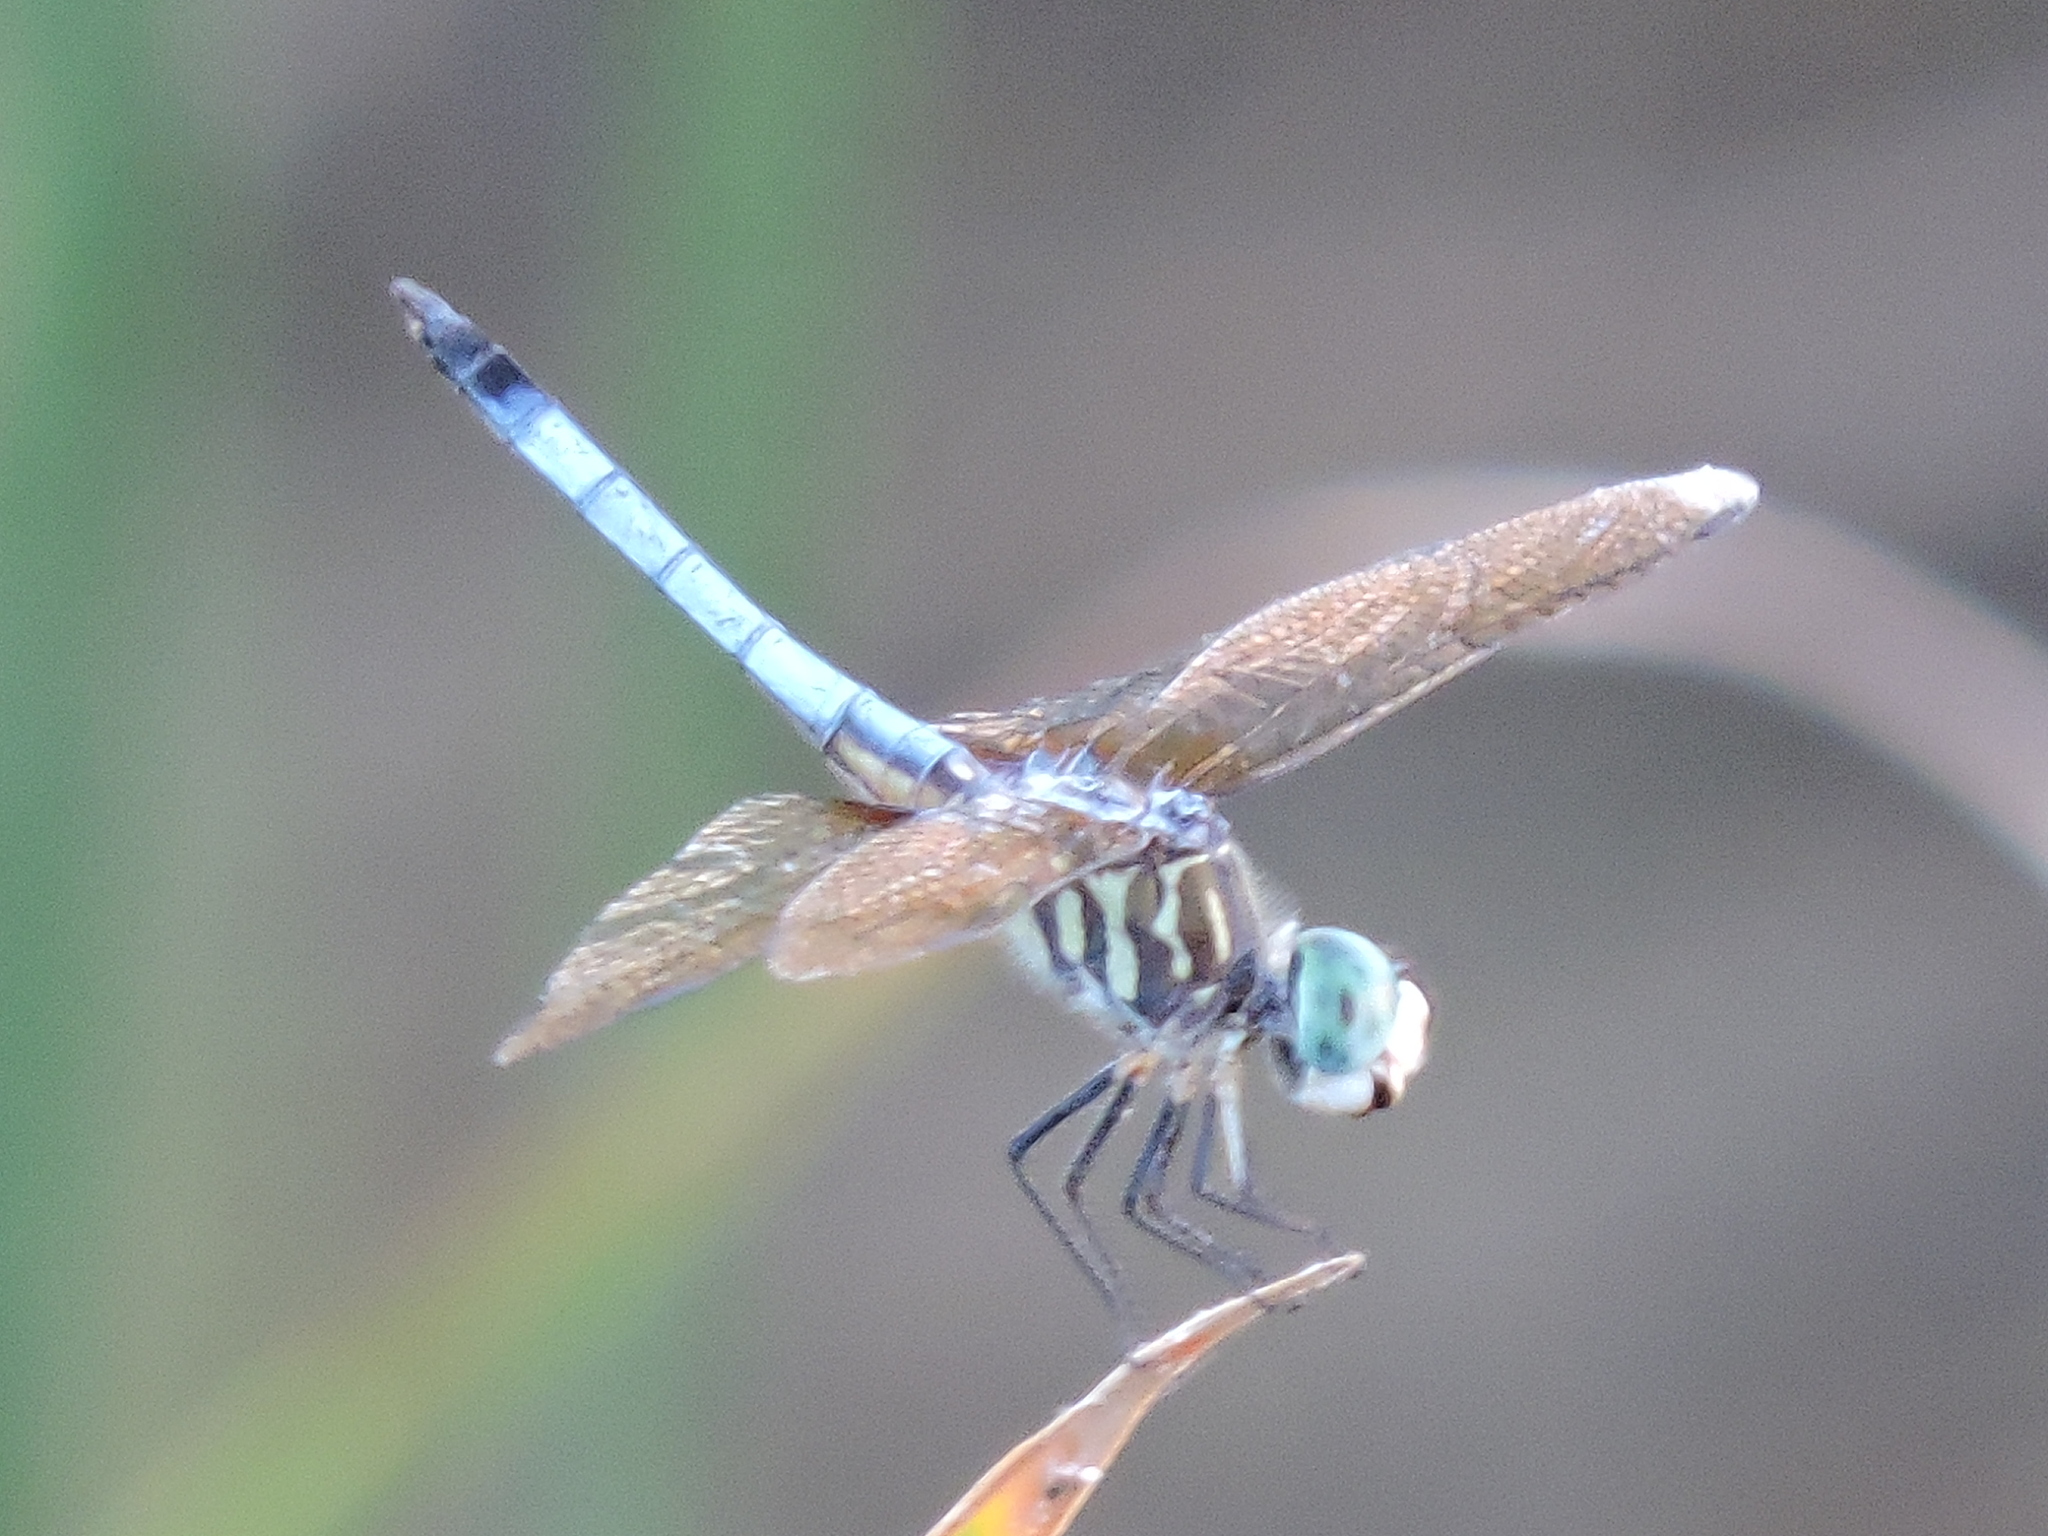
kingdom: Animalia
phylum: Arthropoda
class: Insecta
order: Odonata
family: Libellulidae
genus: Pachydiplax
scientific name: Pachydiplax longipennis
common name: Blue dasher
